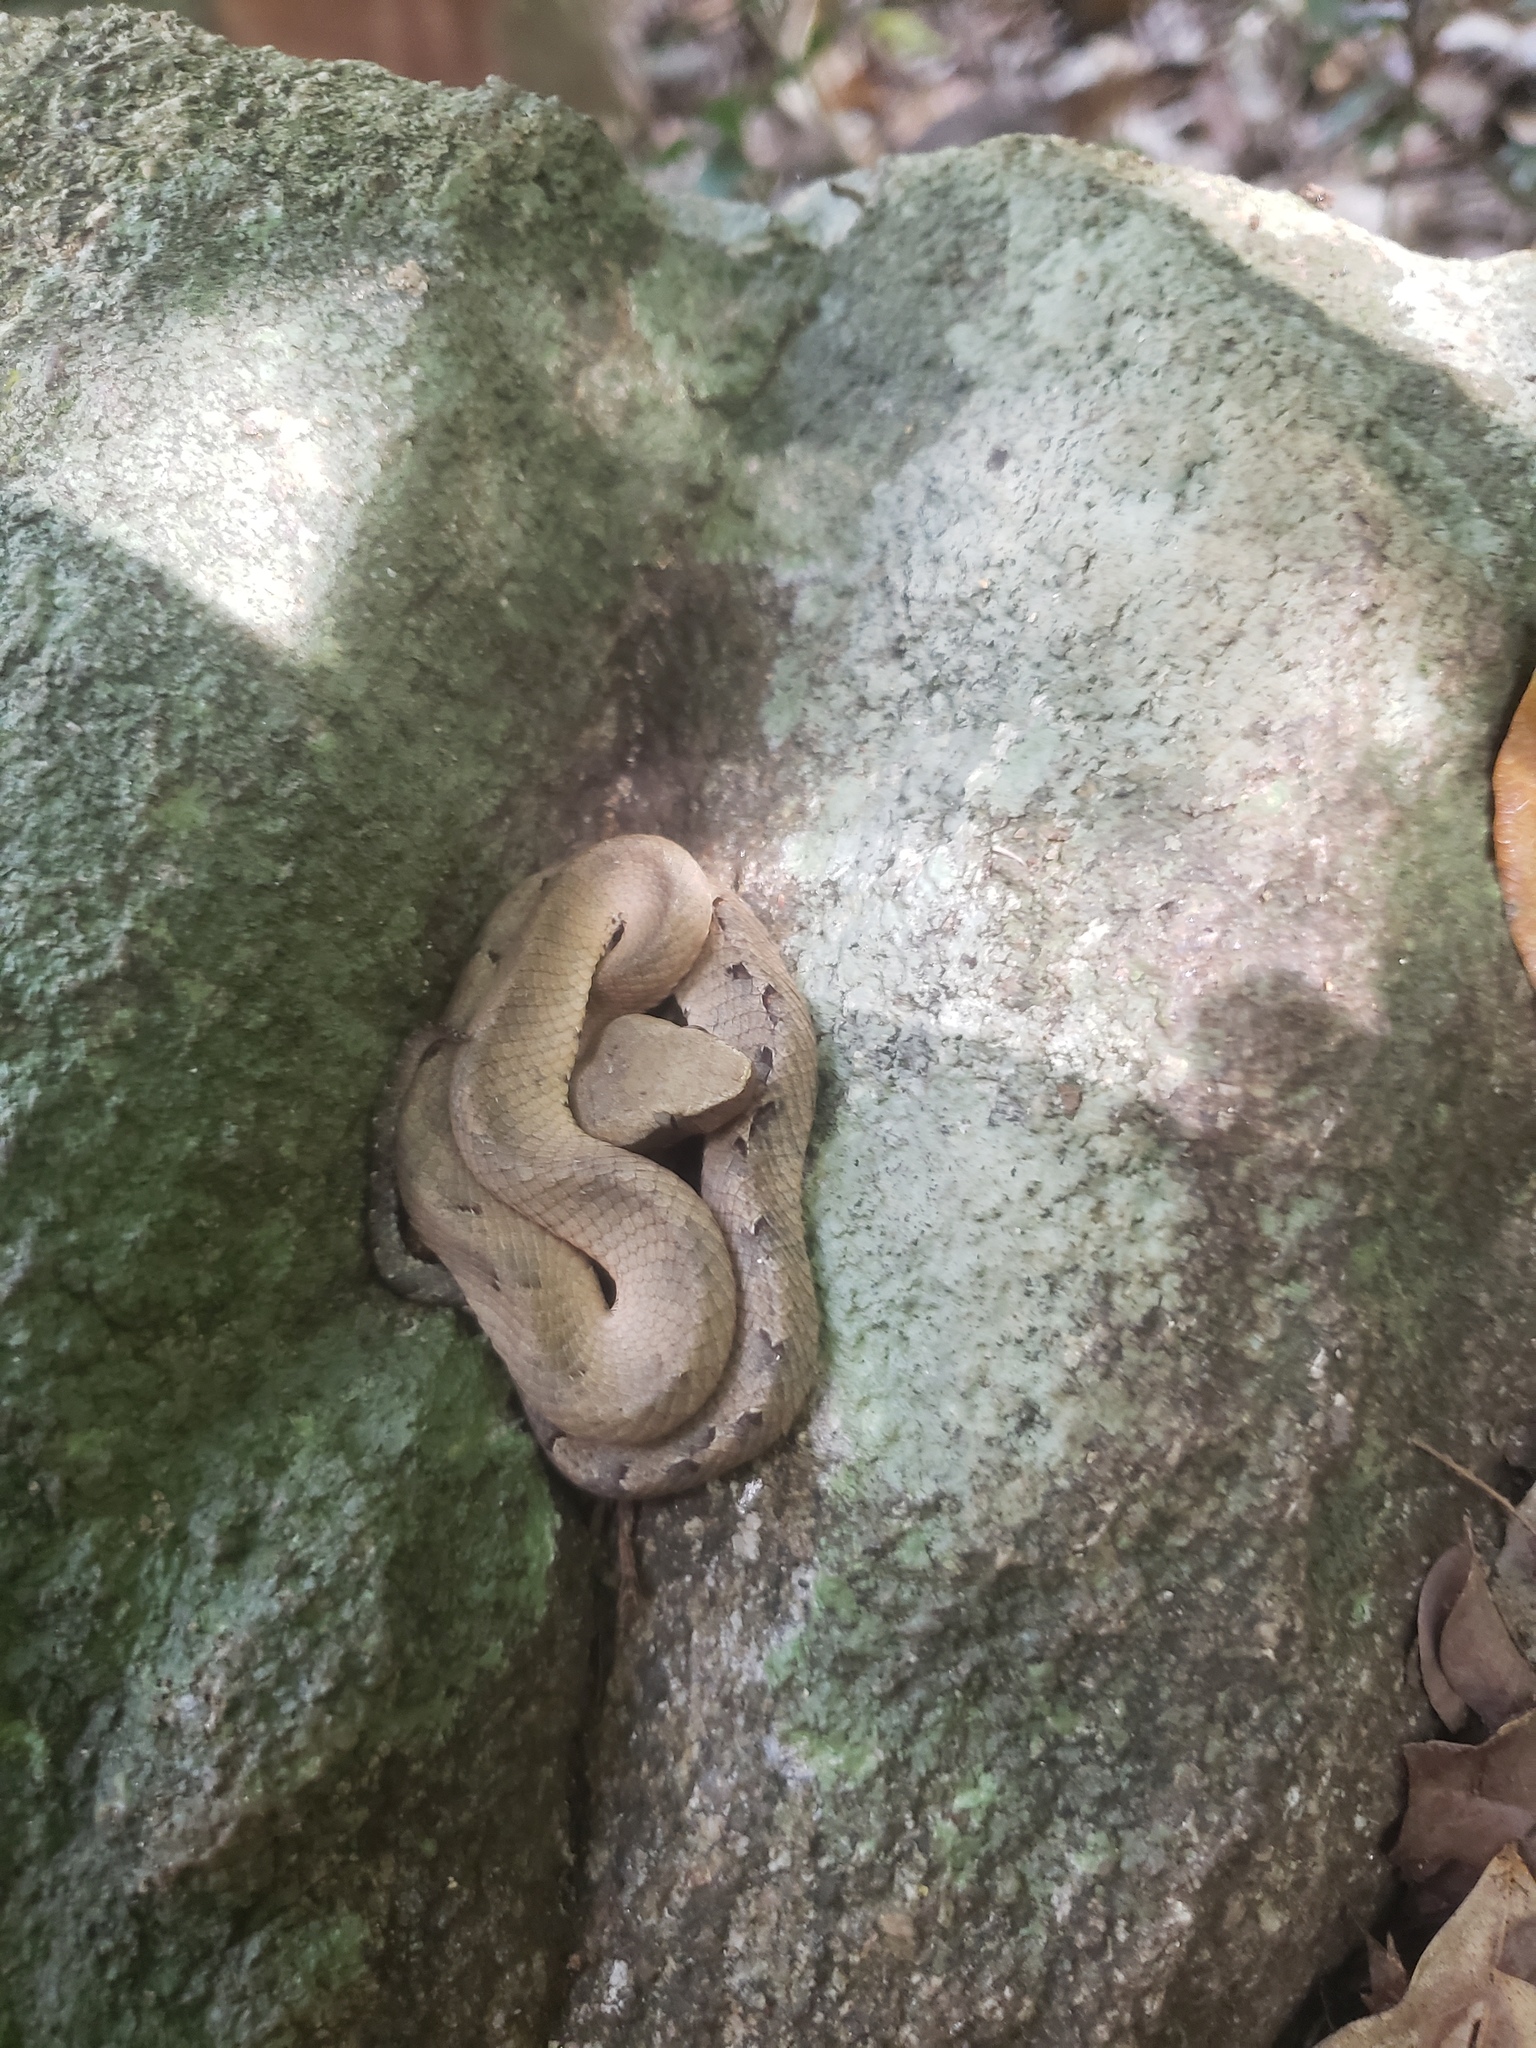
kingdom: Animalia
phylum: Chordata
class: Squamata
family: Viperidae
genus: Hypnale
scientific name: Hypnale hypnale
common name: Hump-nosed moccasin
